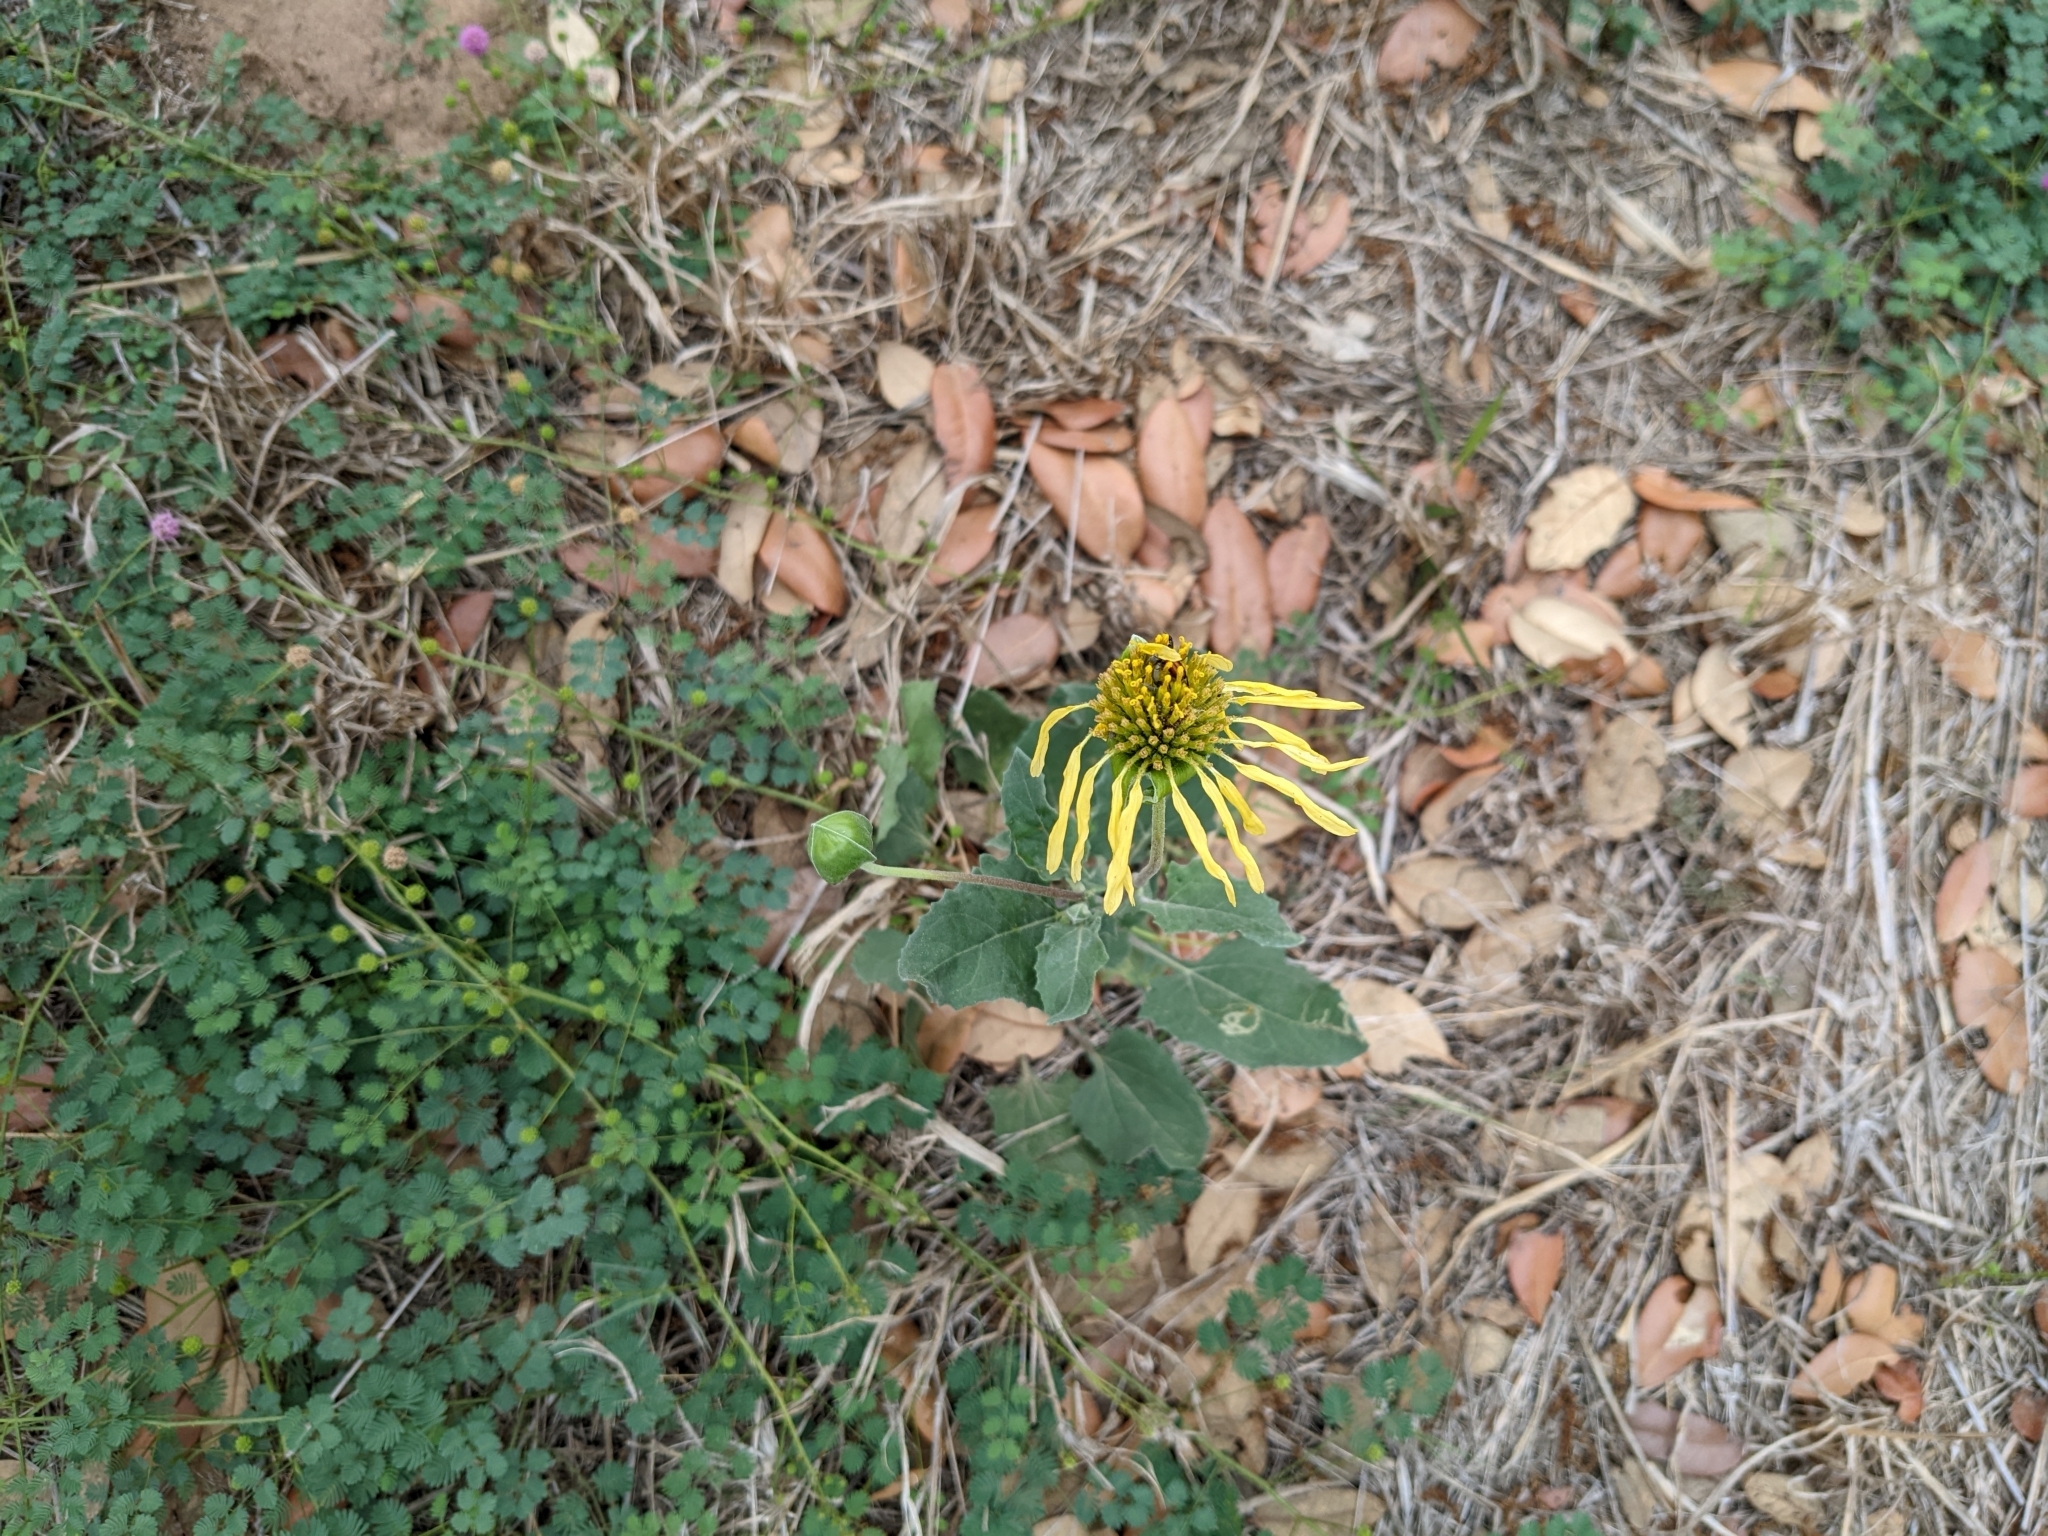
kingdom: Plantae
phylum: Tracheophyta
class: Magnoliopsida
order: Asterales
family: Asteraceae
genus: Tetragonotheca
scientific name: Tetragonotheca repanda
